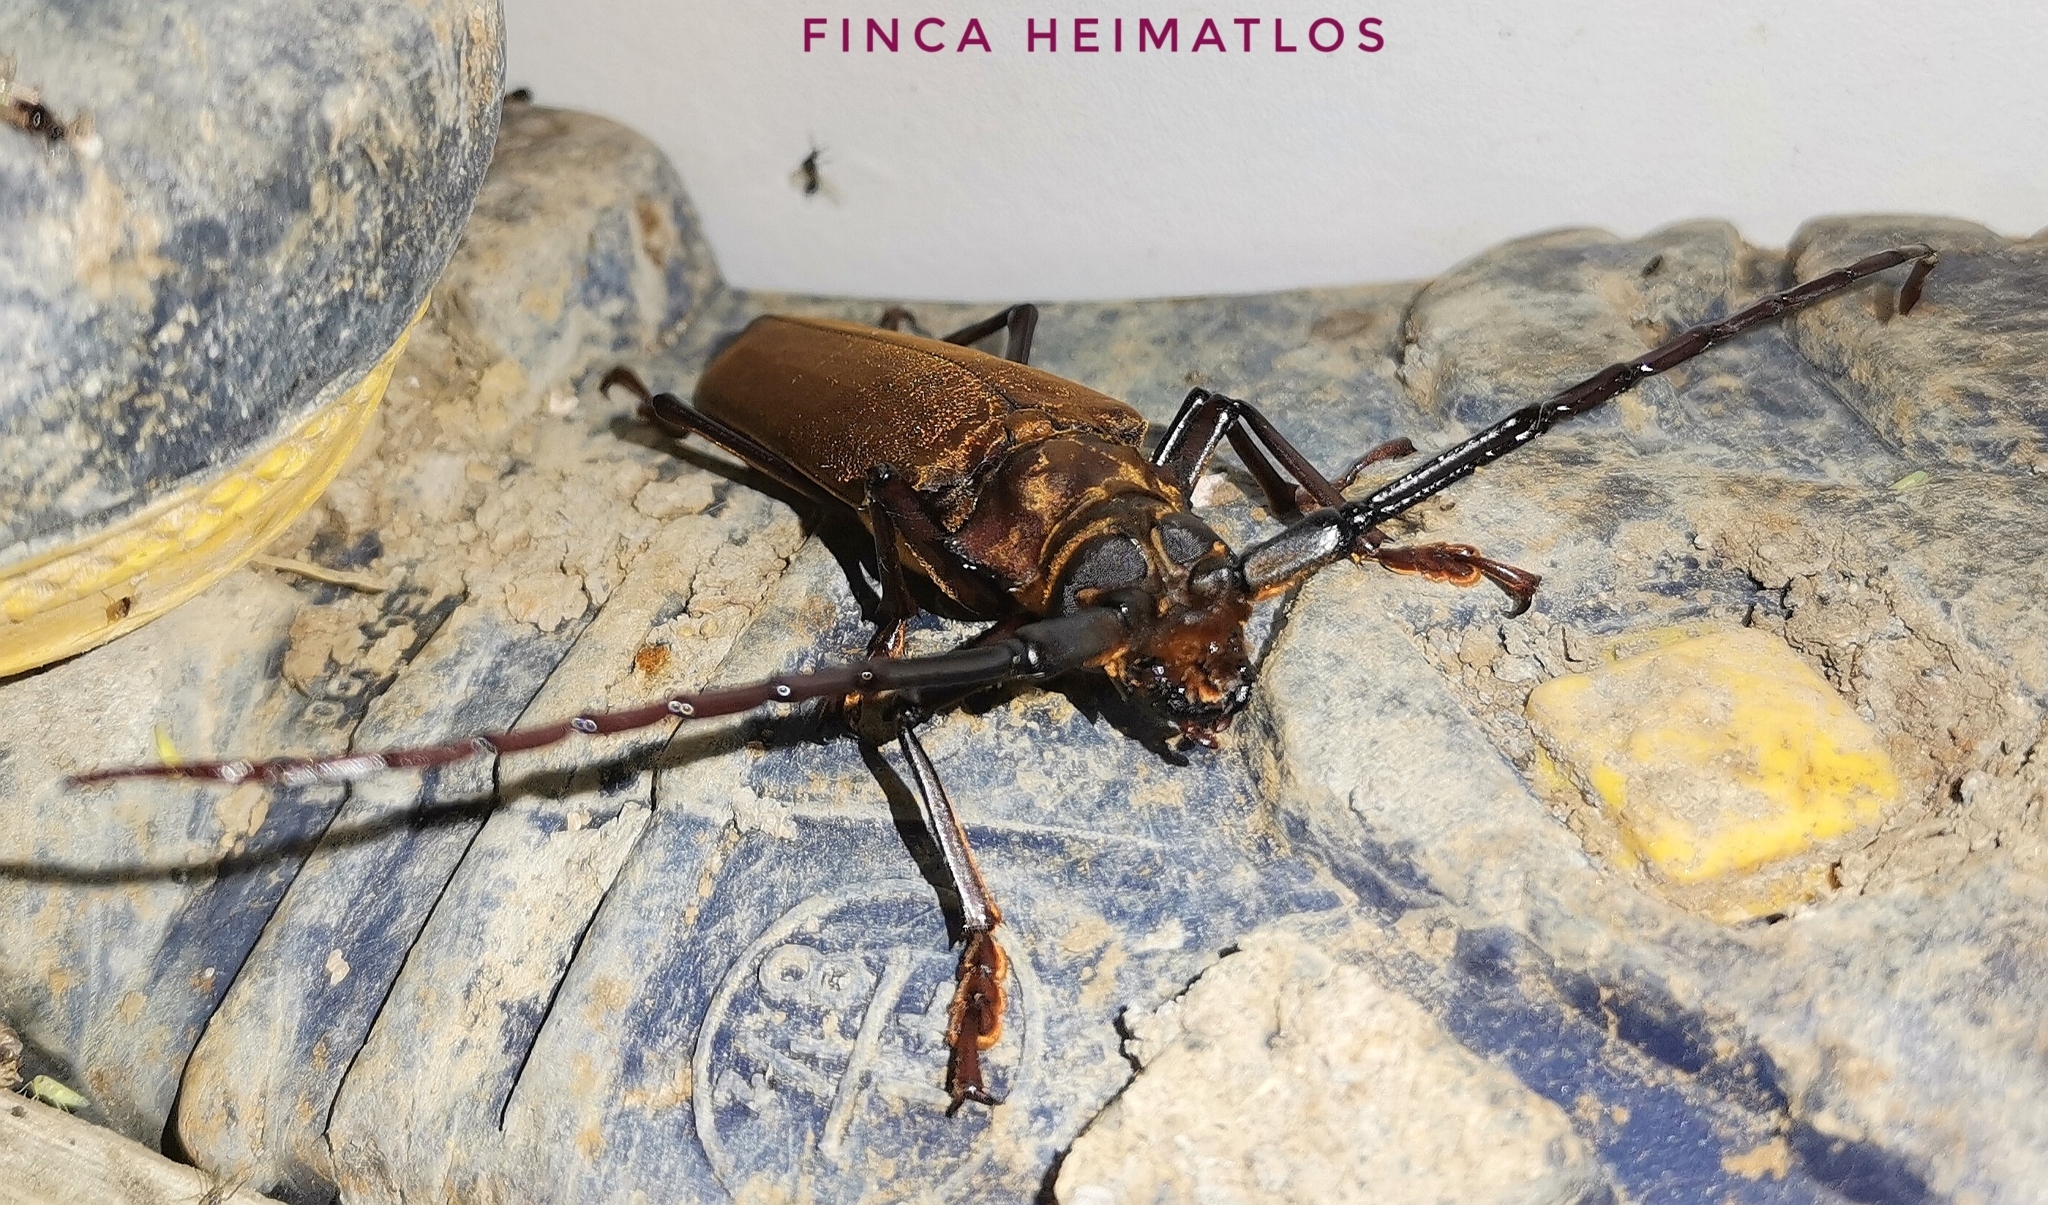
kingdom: Animalia
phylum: Arthropoda
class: Insecta
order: Coleoptera
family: Cerambycidae
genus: Orthomegas
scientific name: Orthomegas cinnamomeus
